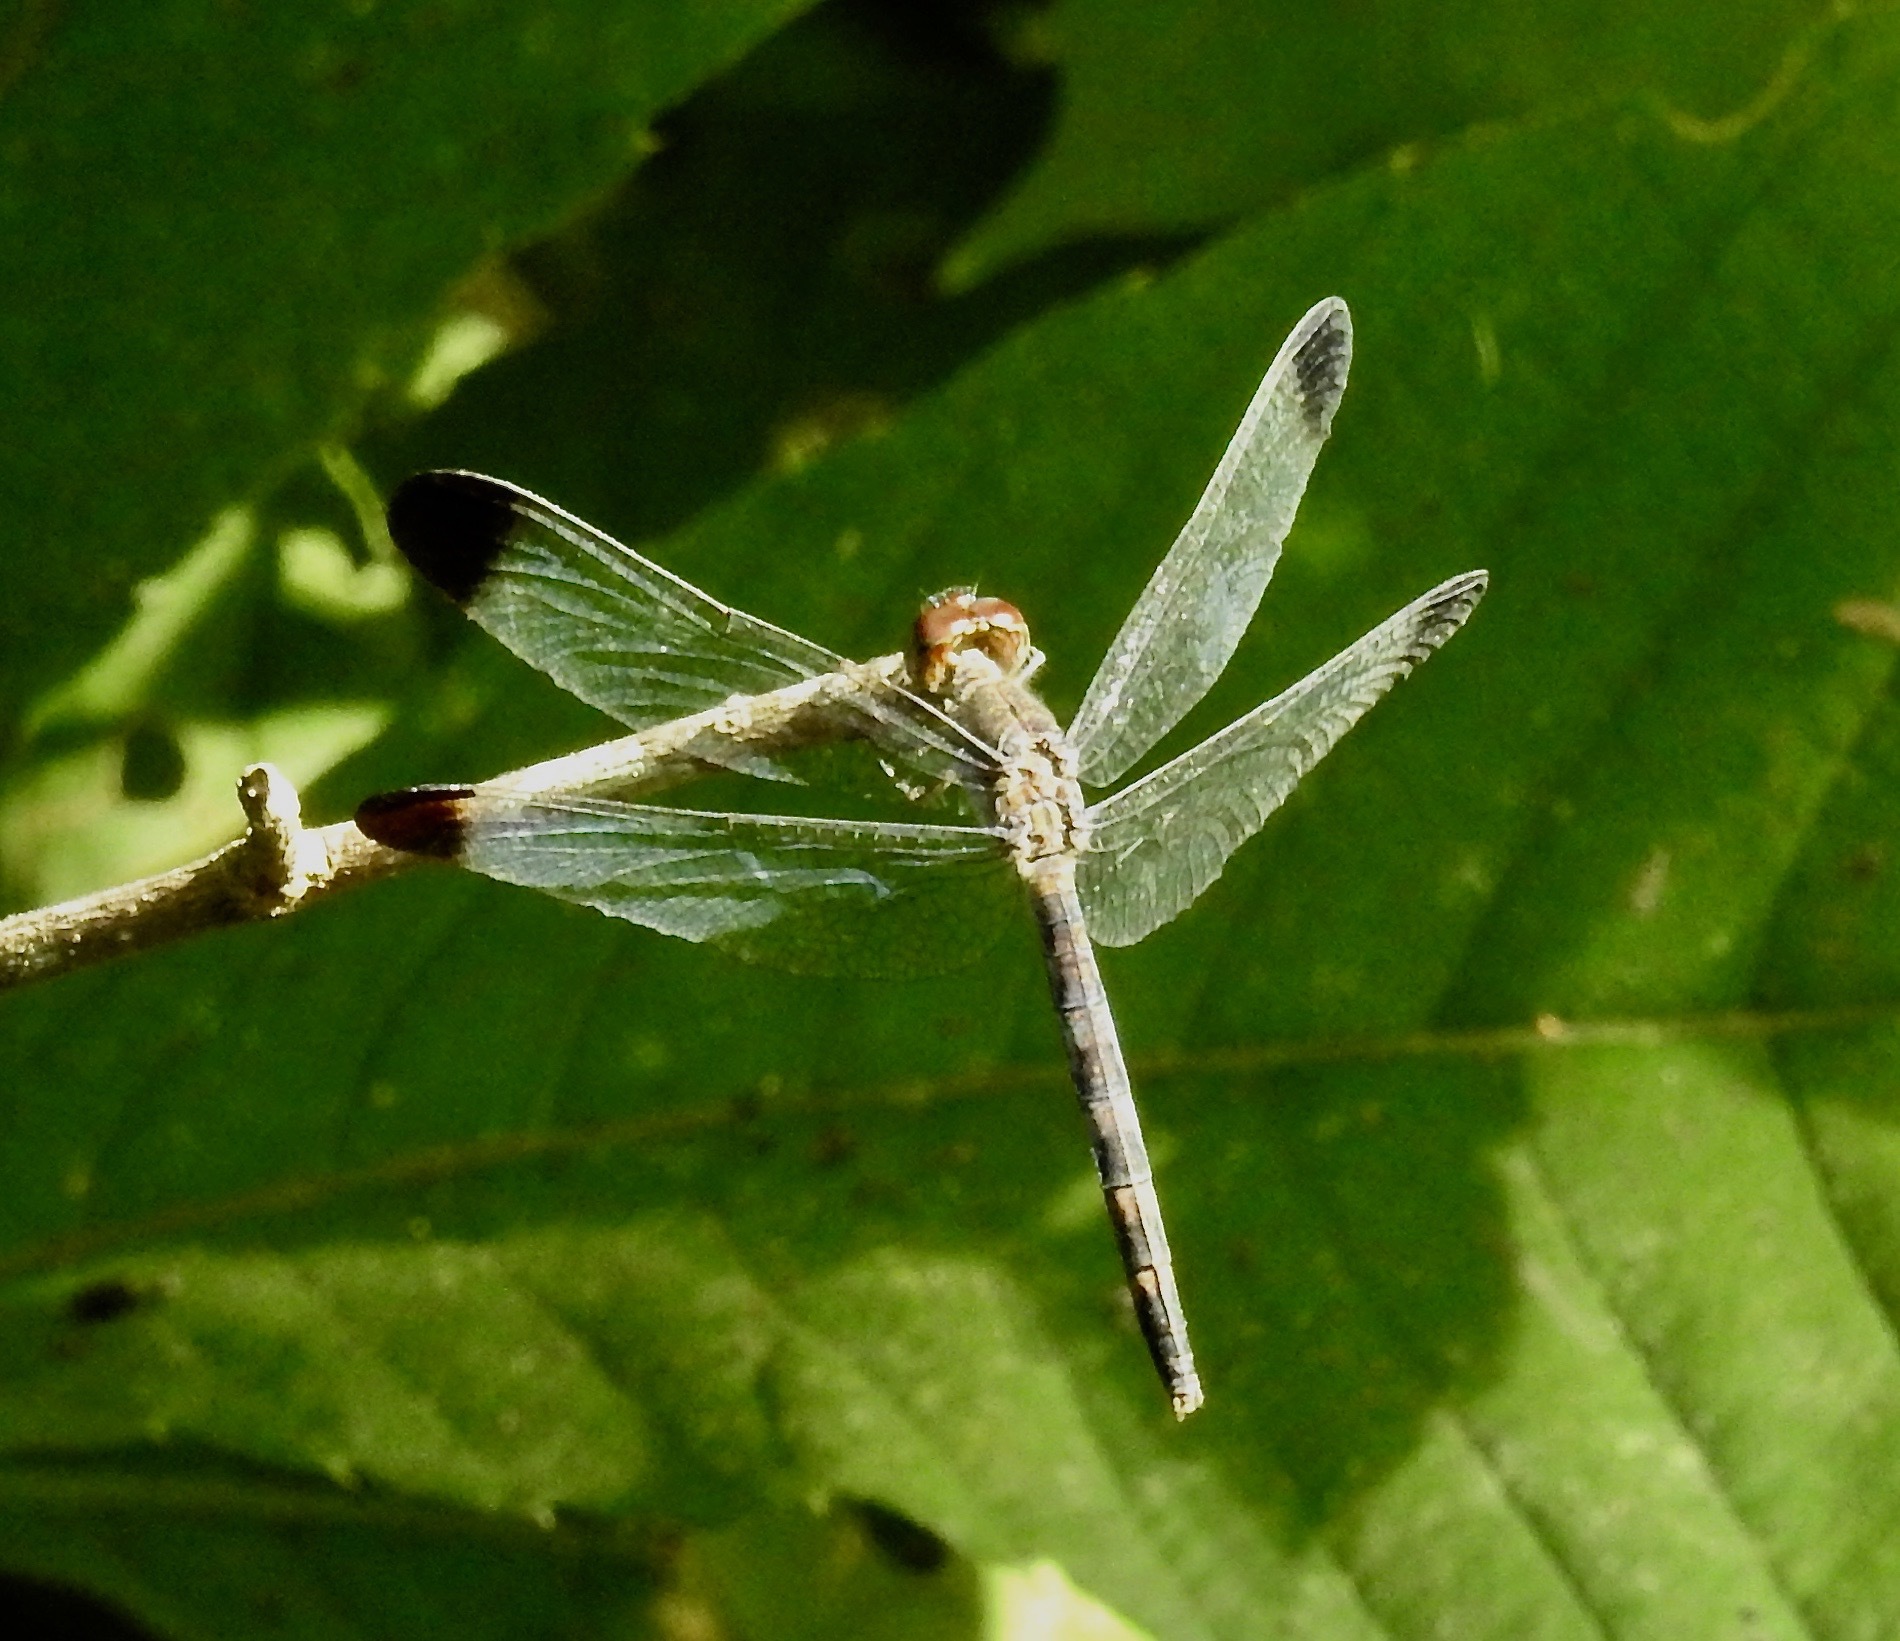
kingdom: Animalia
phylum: Arthropoda
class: Insecta
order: Odonata
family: Libellulidae
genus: Uracis
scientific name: Uracis imbuta
